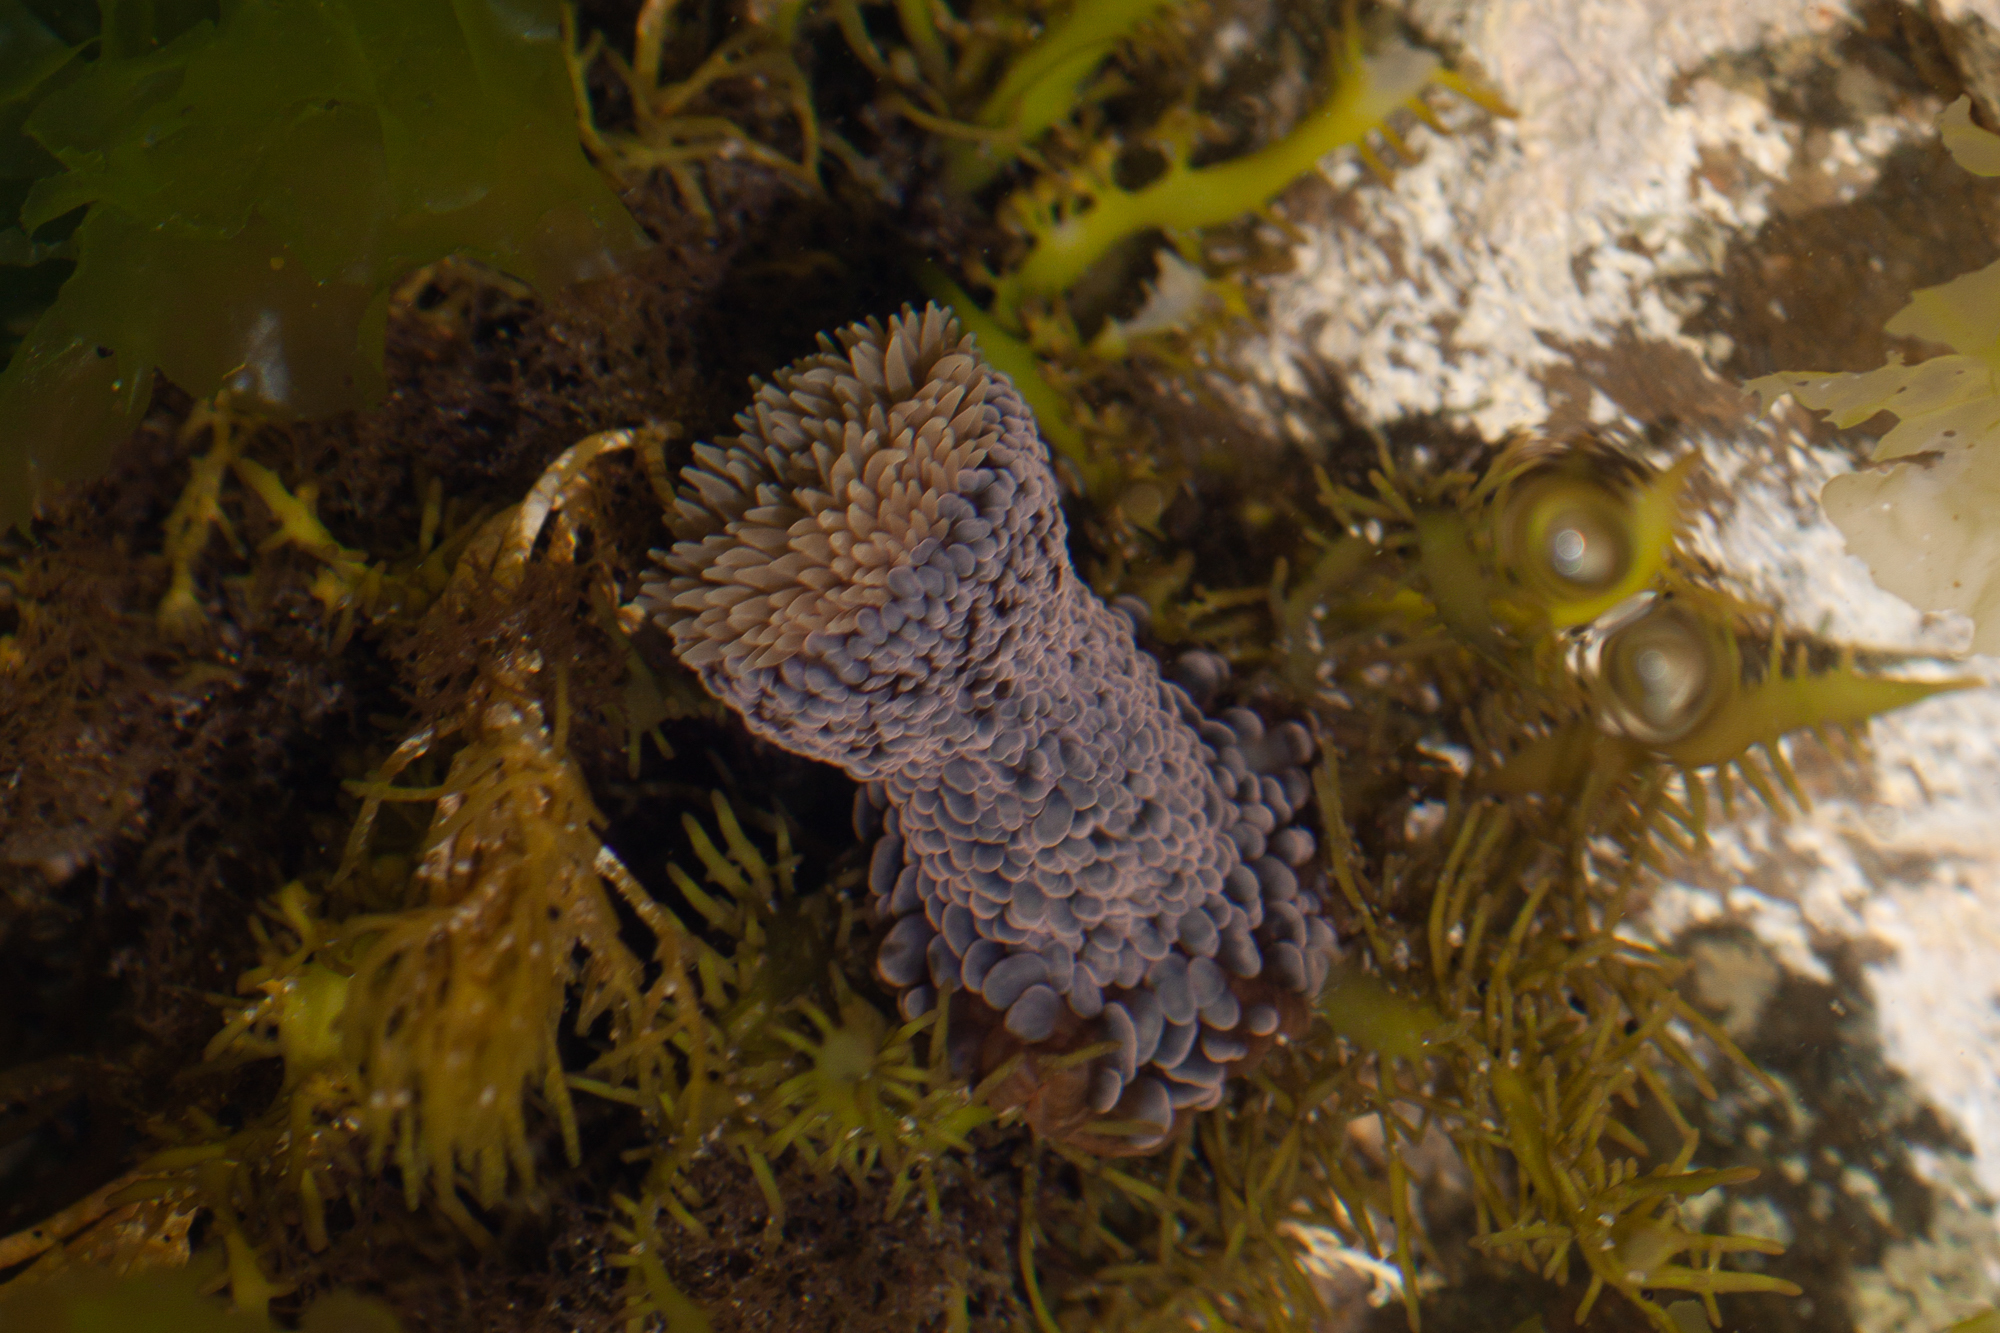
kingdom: Animalia
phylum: Cnidaria
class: Anthozoa
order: Actiniaria
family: Actiniidae
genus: Phlyctenactis
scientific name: Phlyctenactis tuberculosa
